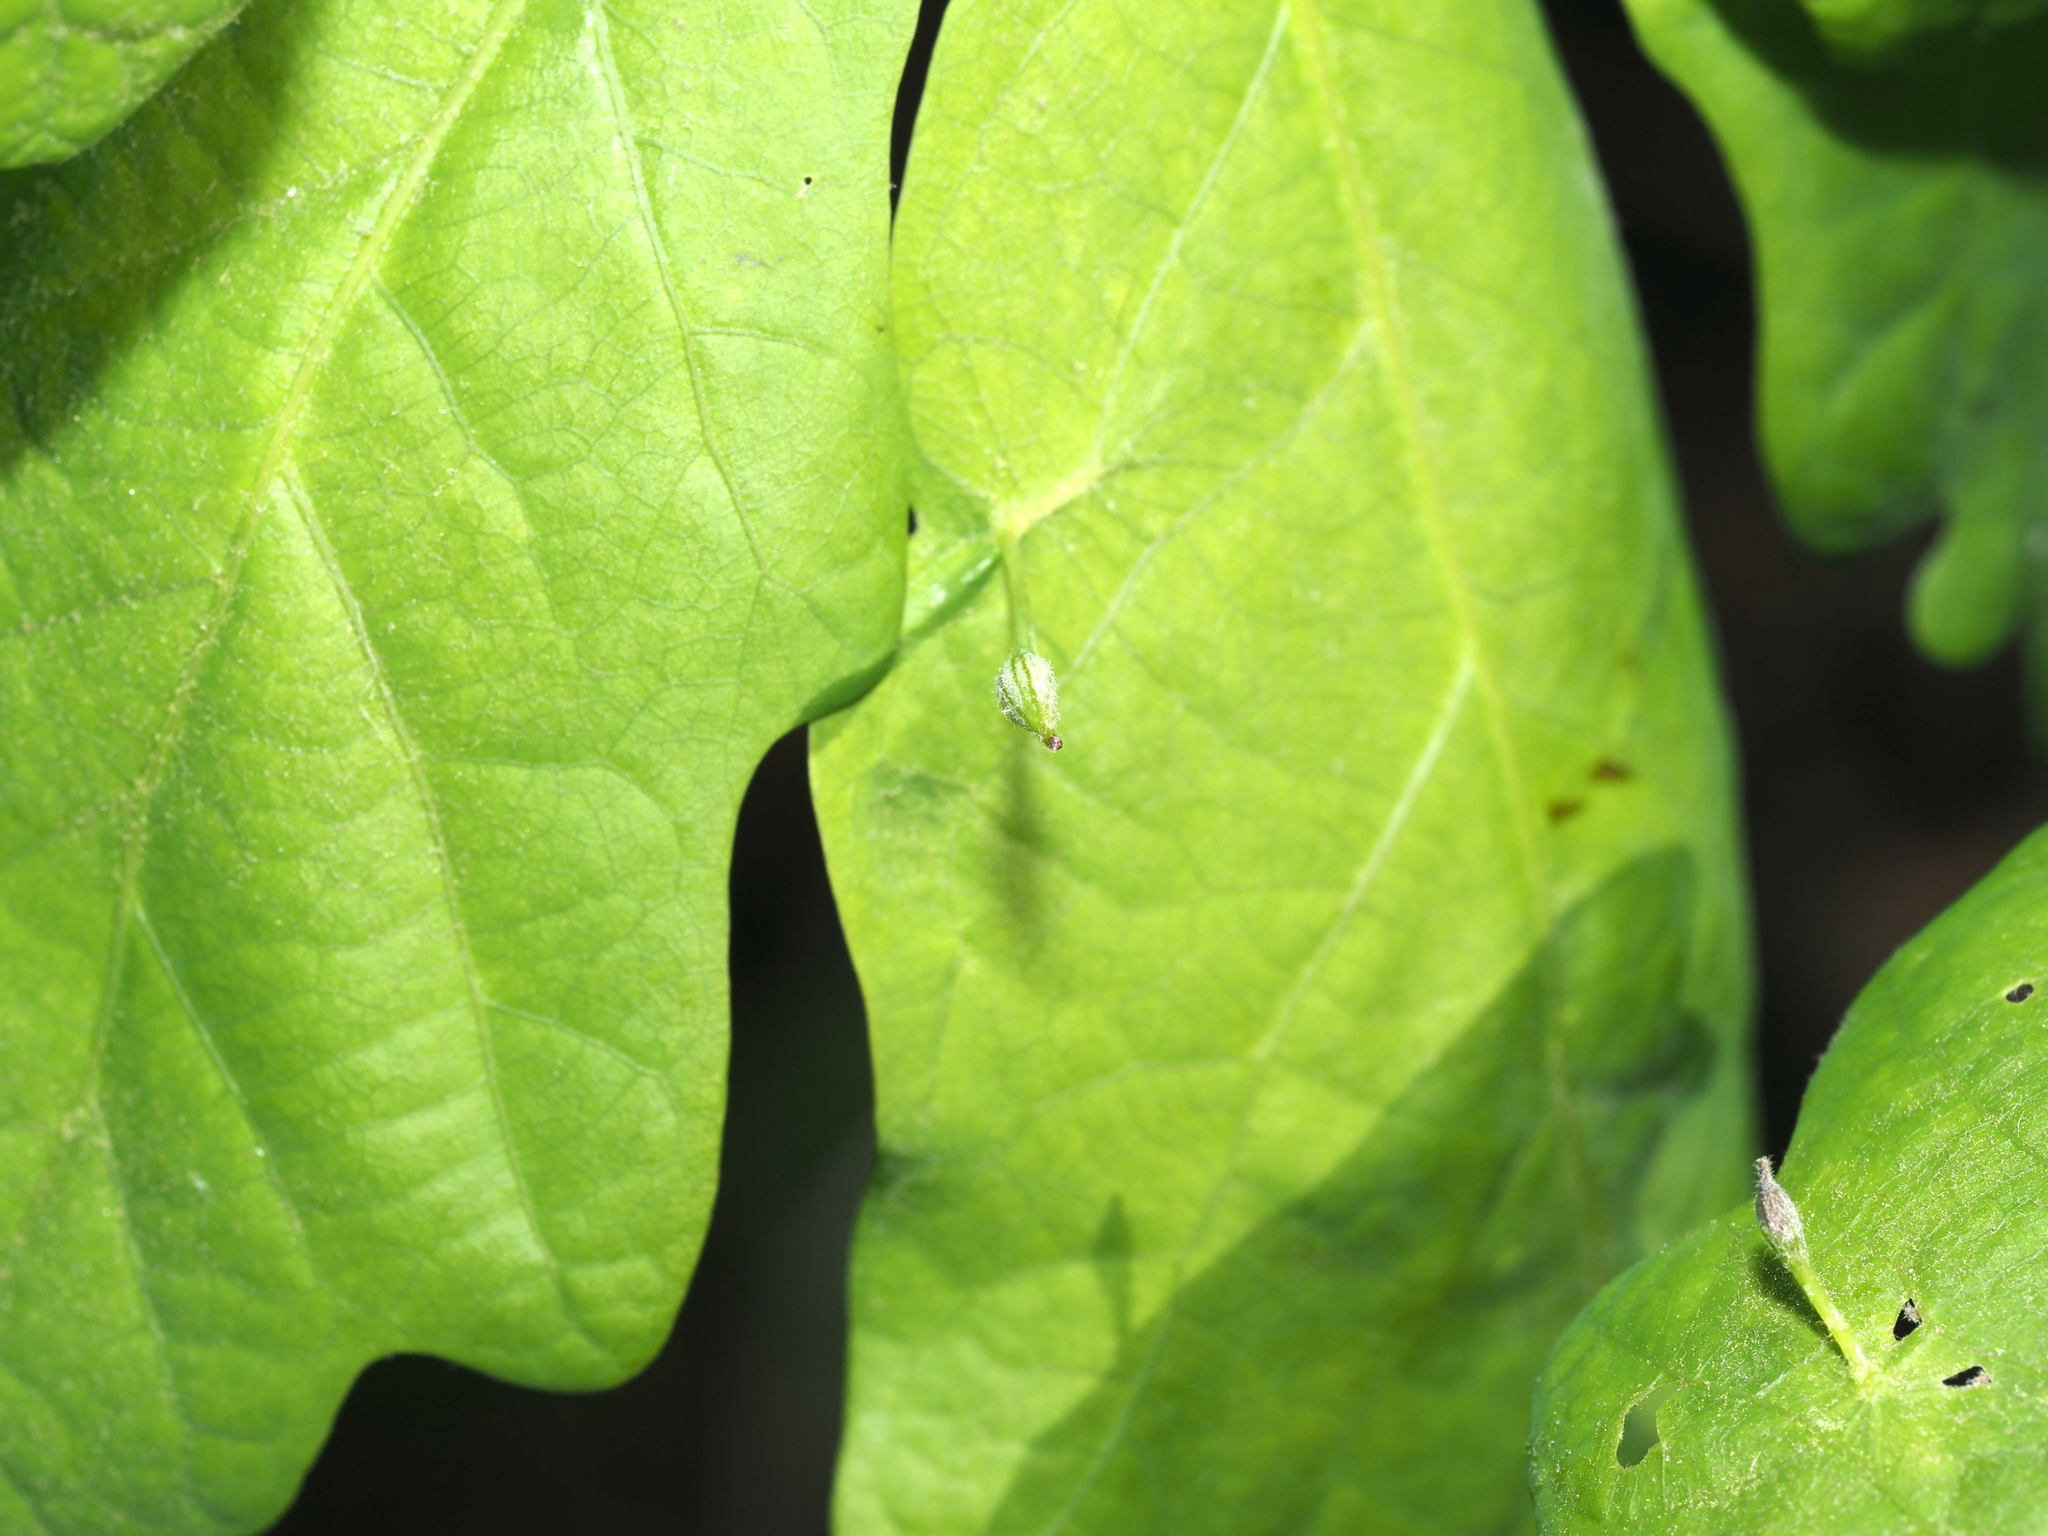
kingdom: Animalia
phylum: Arthropoda
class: Insecta
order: Hymenoptera
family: Cynipidae
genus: Andricus
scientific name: Andricus
